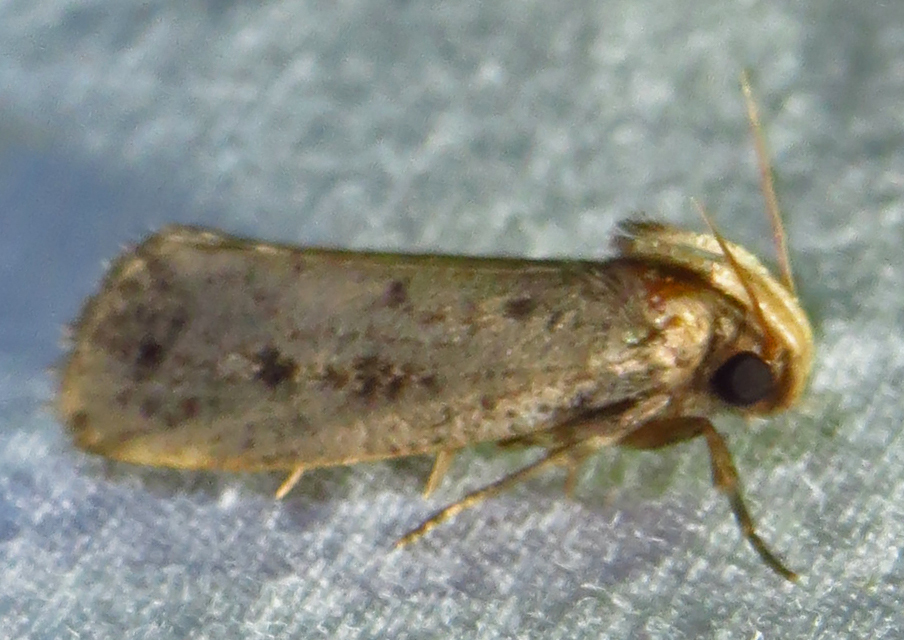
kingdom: Animalia
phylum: Arthropoda
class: Insecta
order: Lepidoptera
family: Tineidae
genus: Acrolophus
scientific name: Acrolophus popeanella
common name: Clemens' grass tubeworm moth
